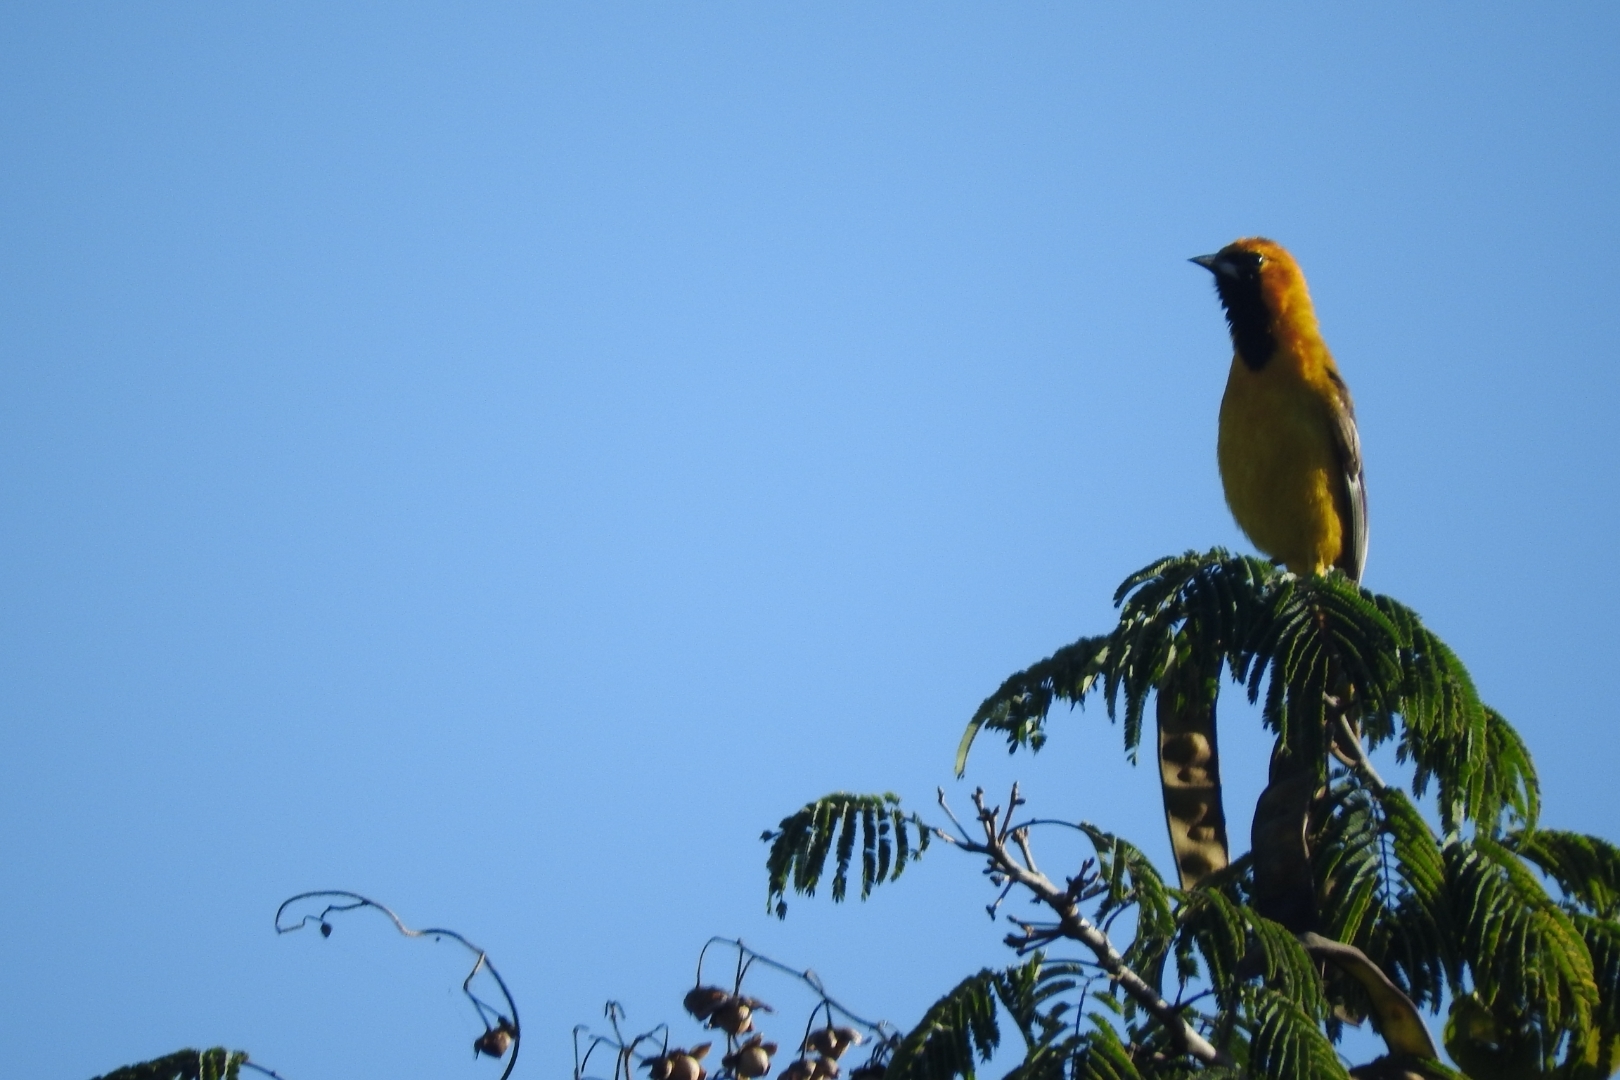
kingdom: Animalia
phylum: Chordata
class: Aves
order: Passeriformes
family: Icteridae
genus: Icterus
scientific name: Icterus auratus
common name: Orange oriole
